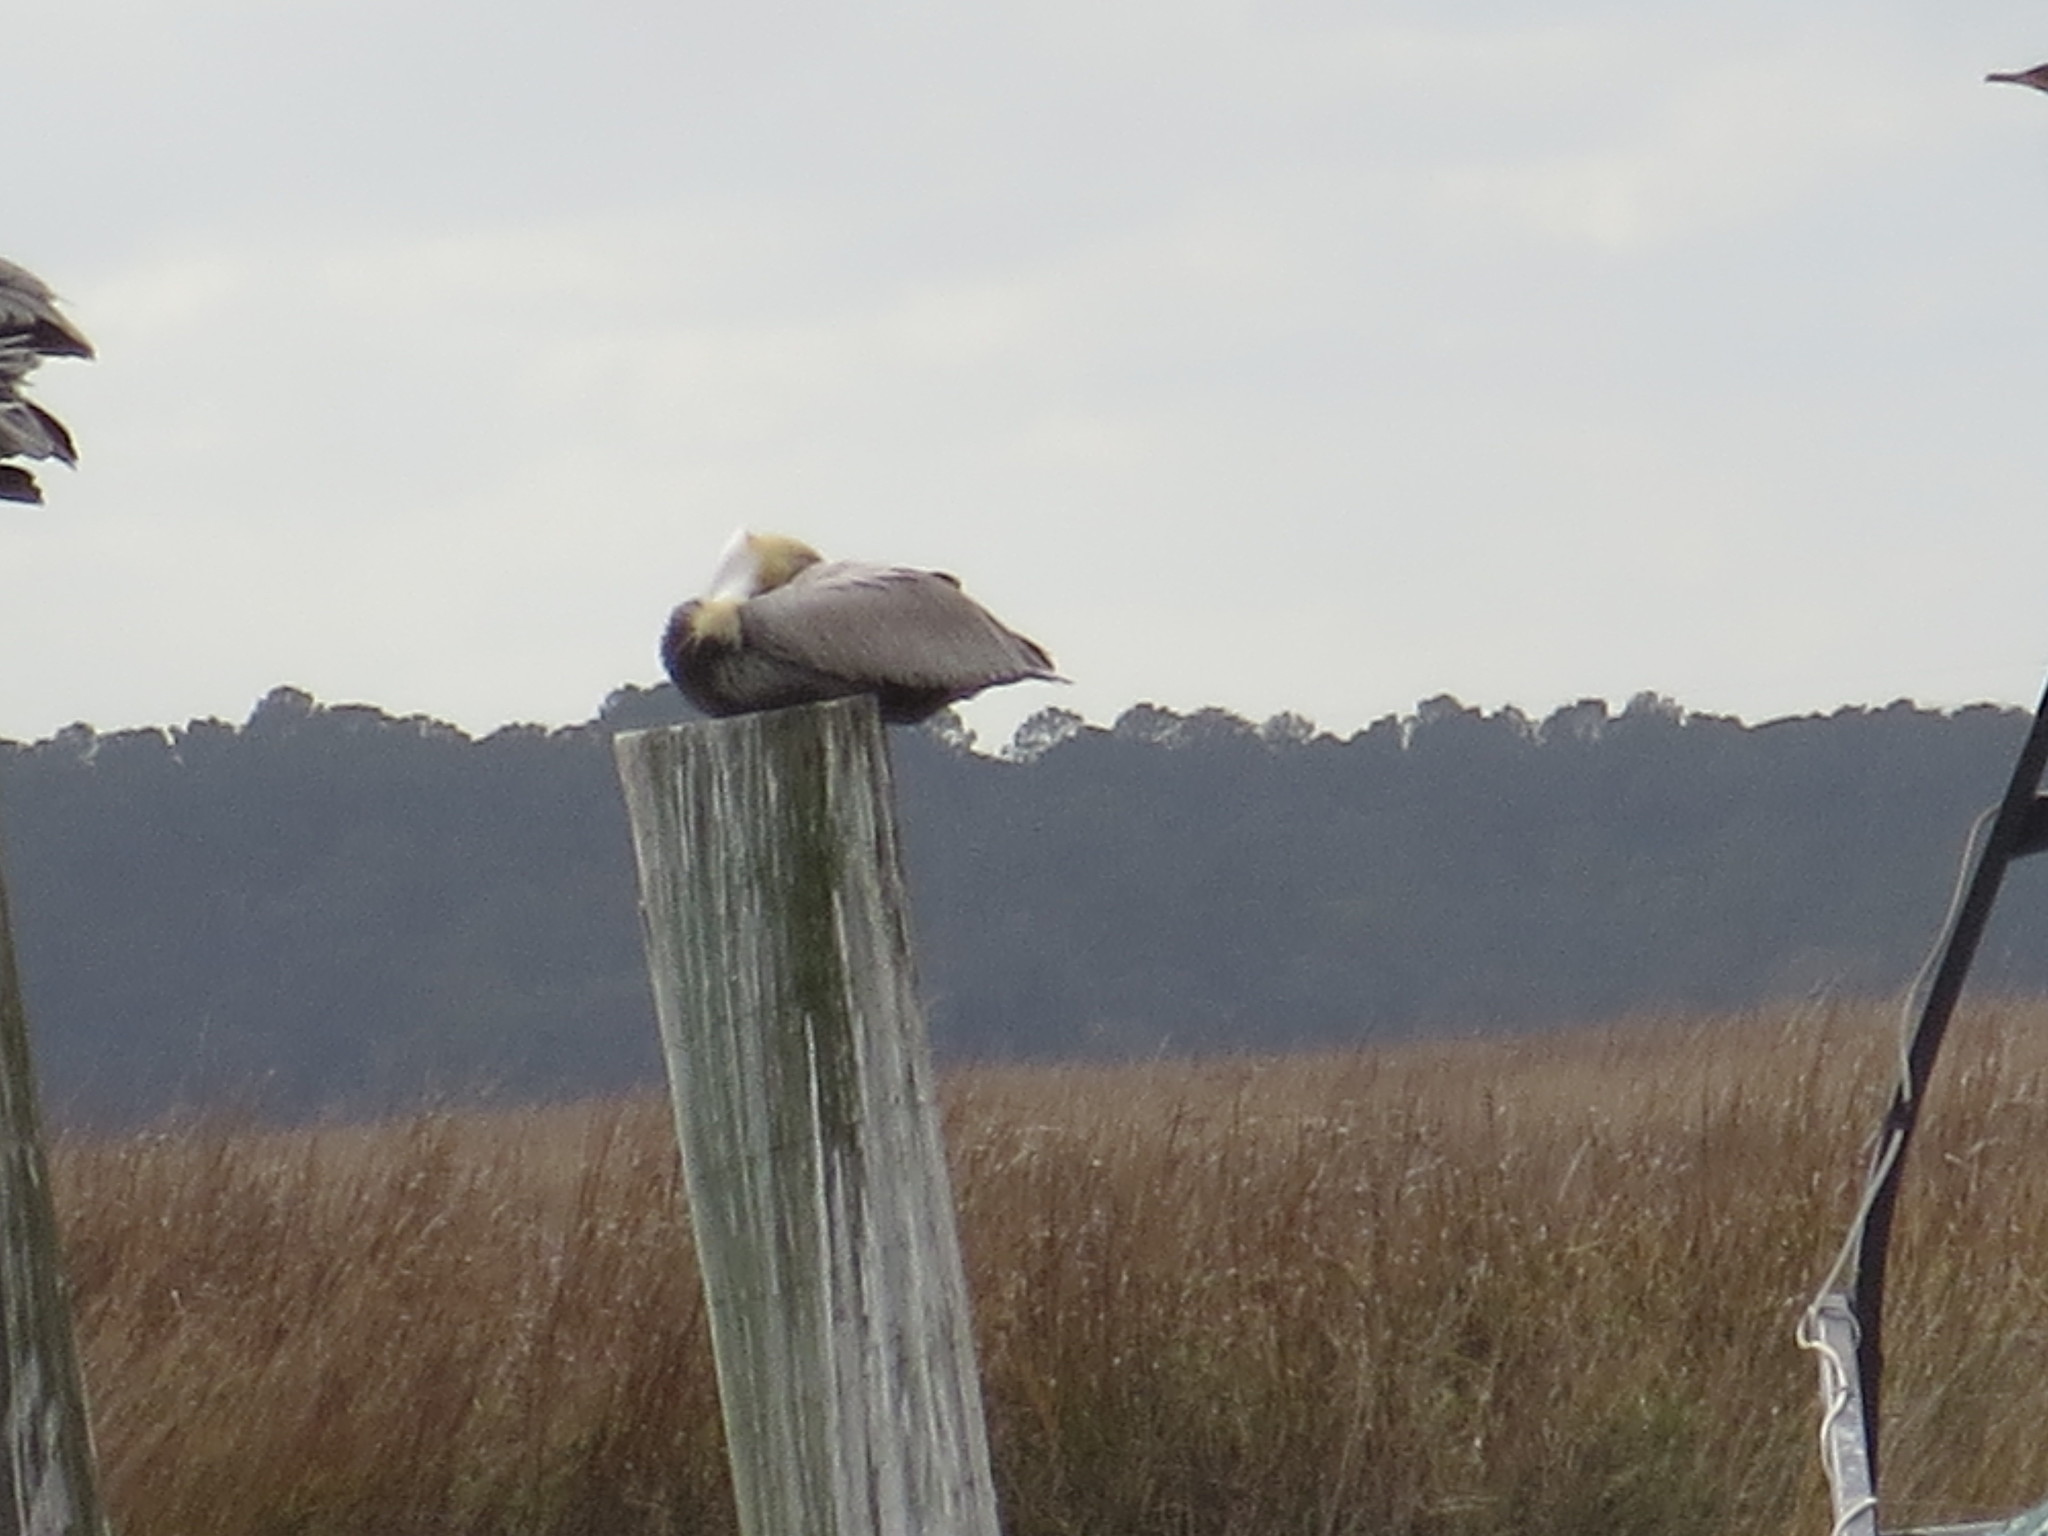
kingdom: Animalia
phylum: Chordata
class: Aves
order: Pelecaniformes
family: Pelecanidae
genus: Pelecanus
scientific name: Pelecanus occidentalis
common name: Brown pelican
